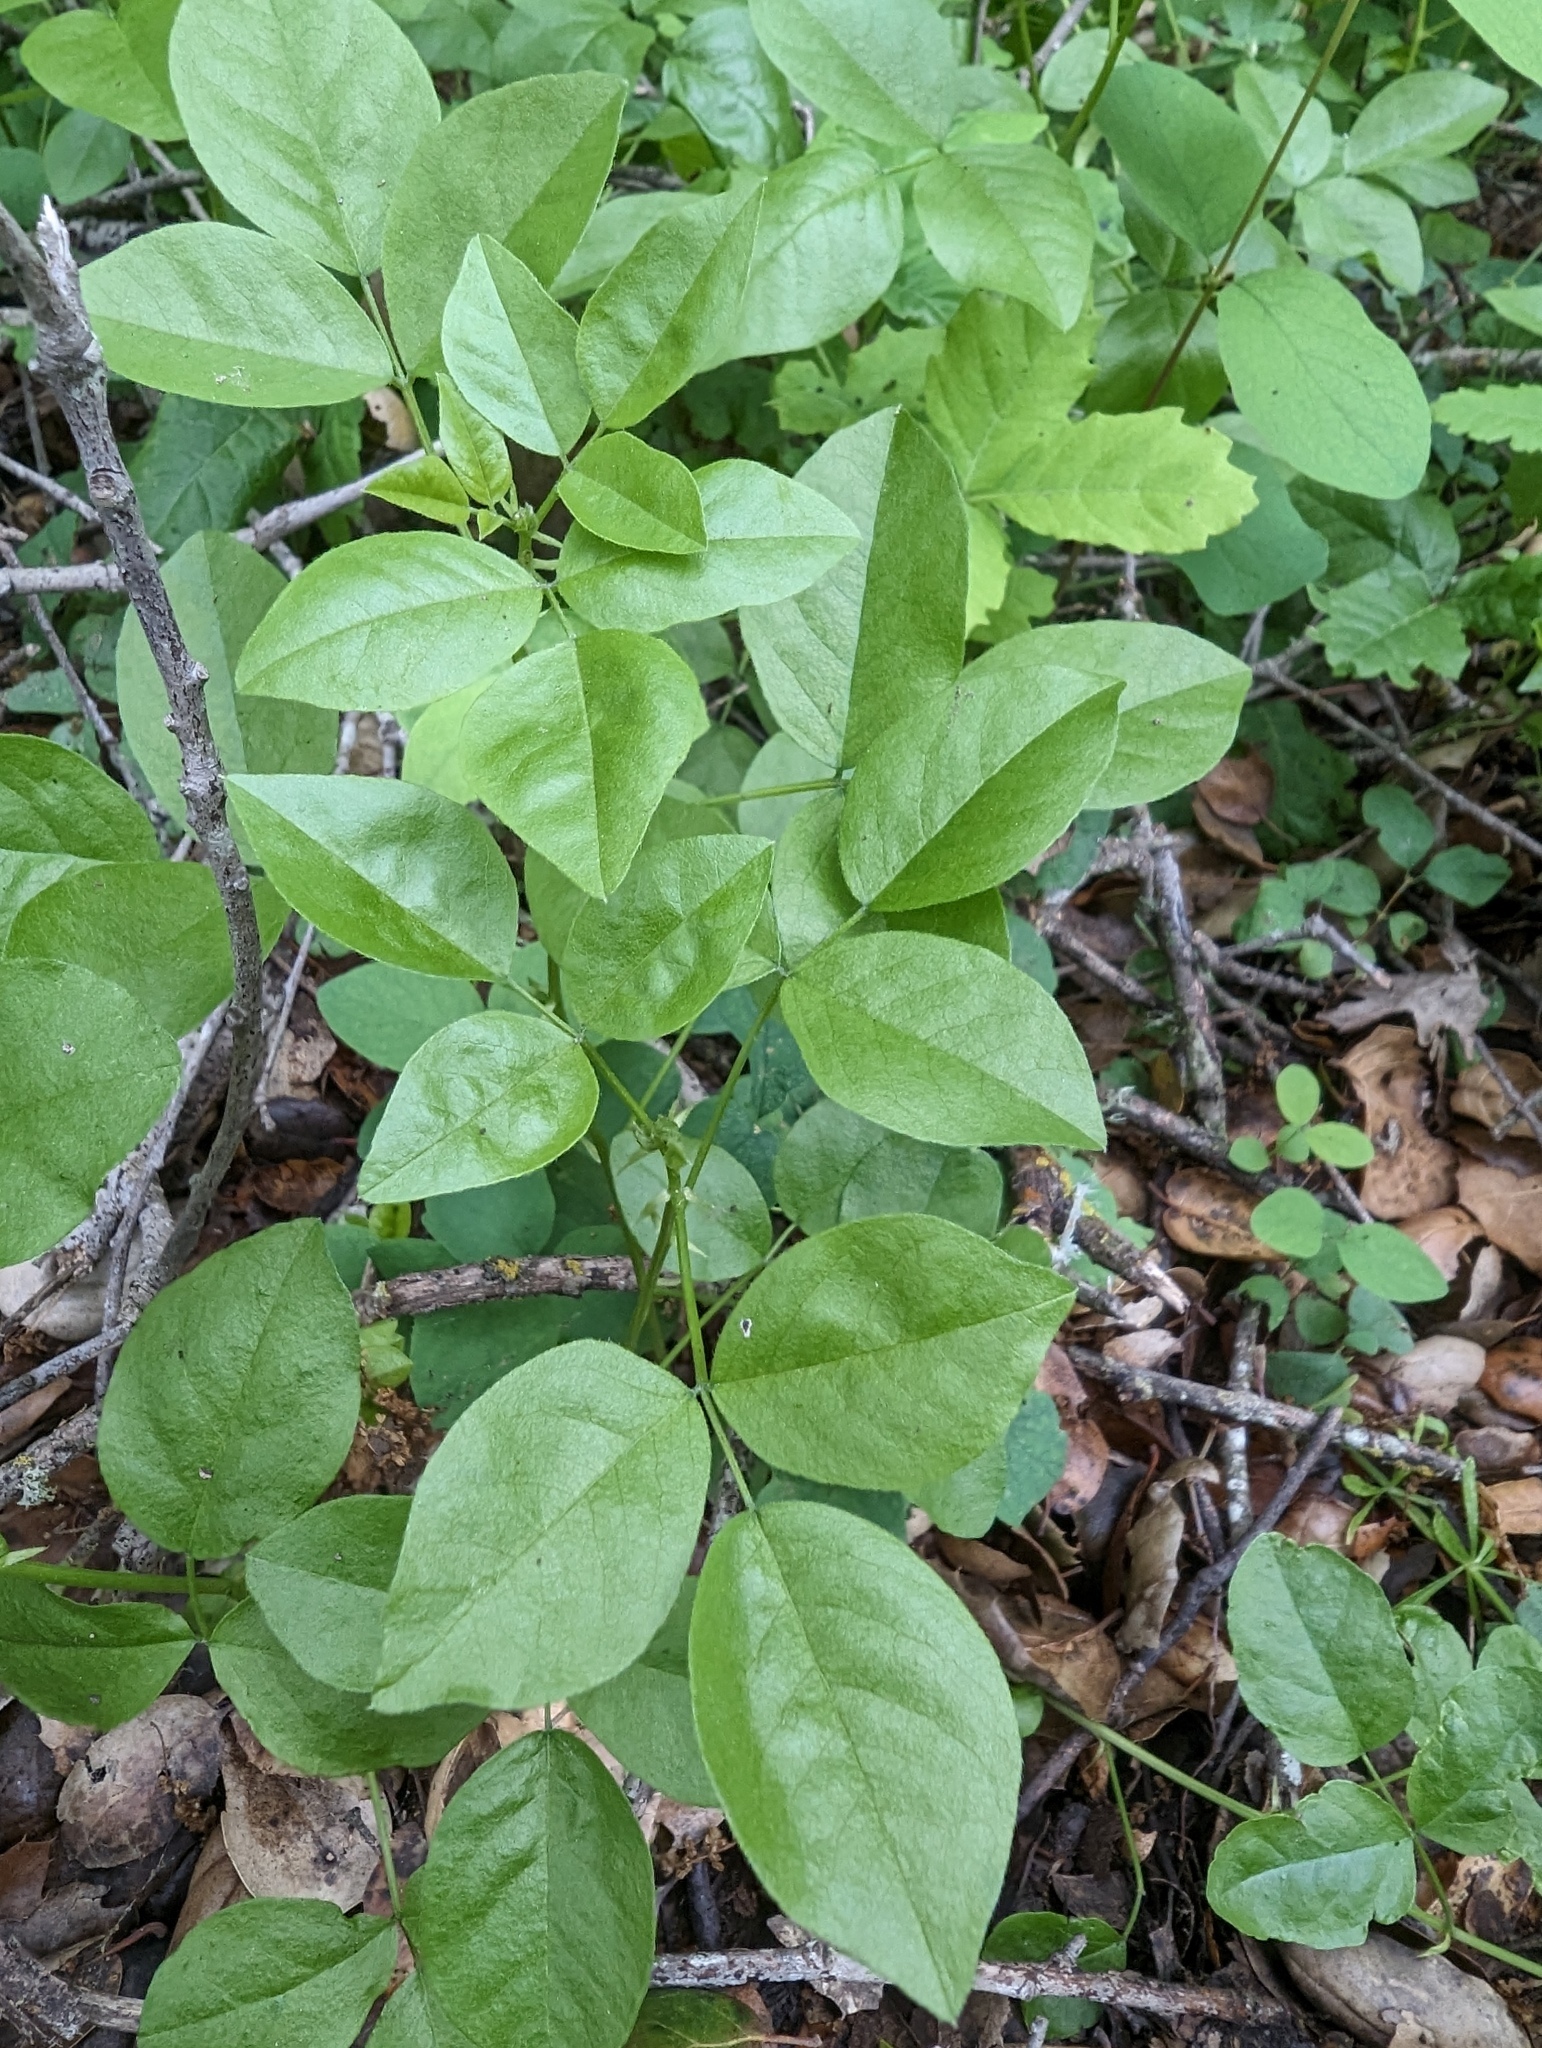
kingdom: Plantae
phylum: Tracheophyta
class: Magnoliopsida
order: Fabales
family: Fabaceae
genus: Rupertia
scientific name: Rupertia physodes
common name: California-tea
